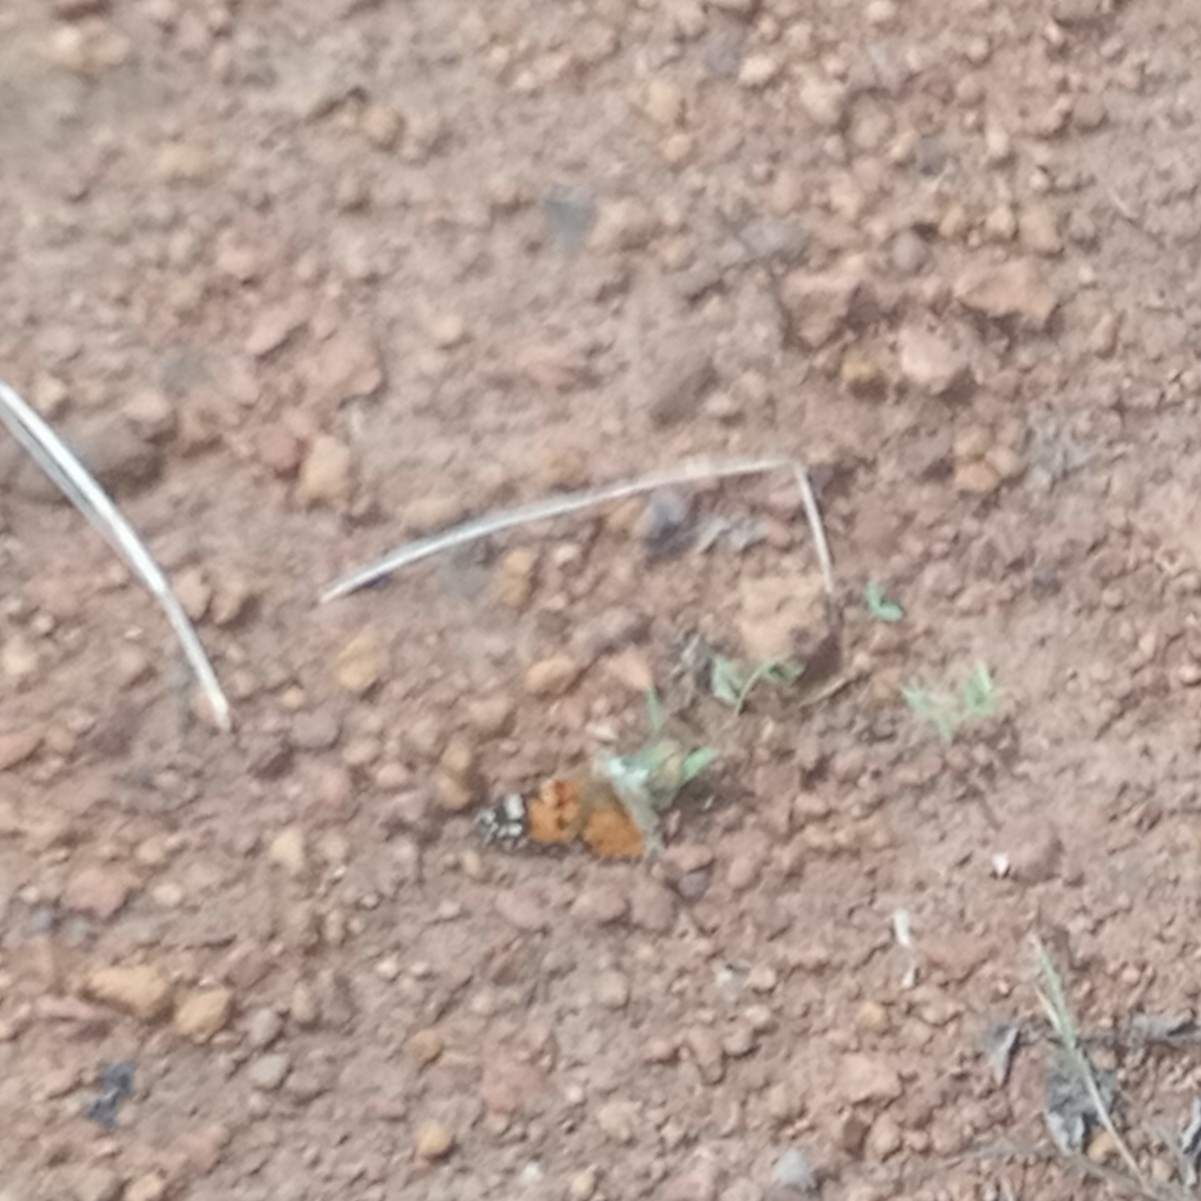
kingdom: Animalia
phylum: Arthropoda
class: Insecta
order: Lepidoptera
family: Nymphalidae
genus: Vanessa
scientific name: Vanessa cardui
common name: Painted lady
